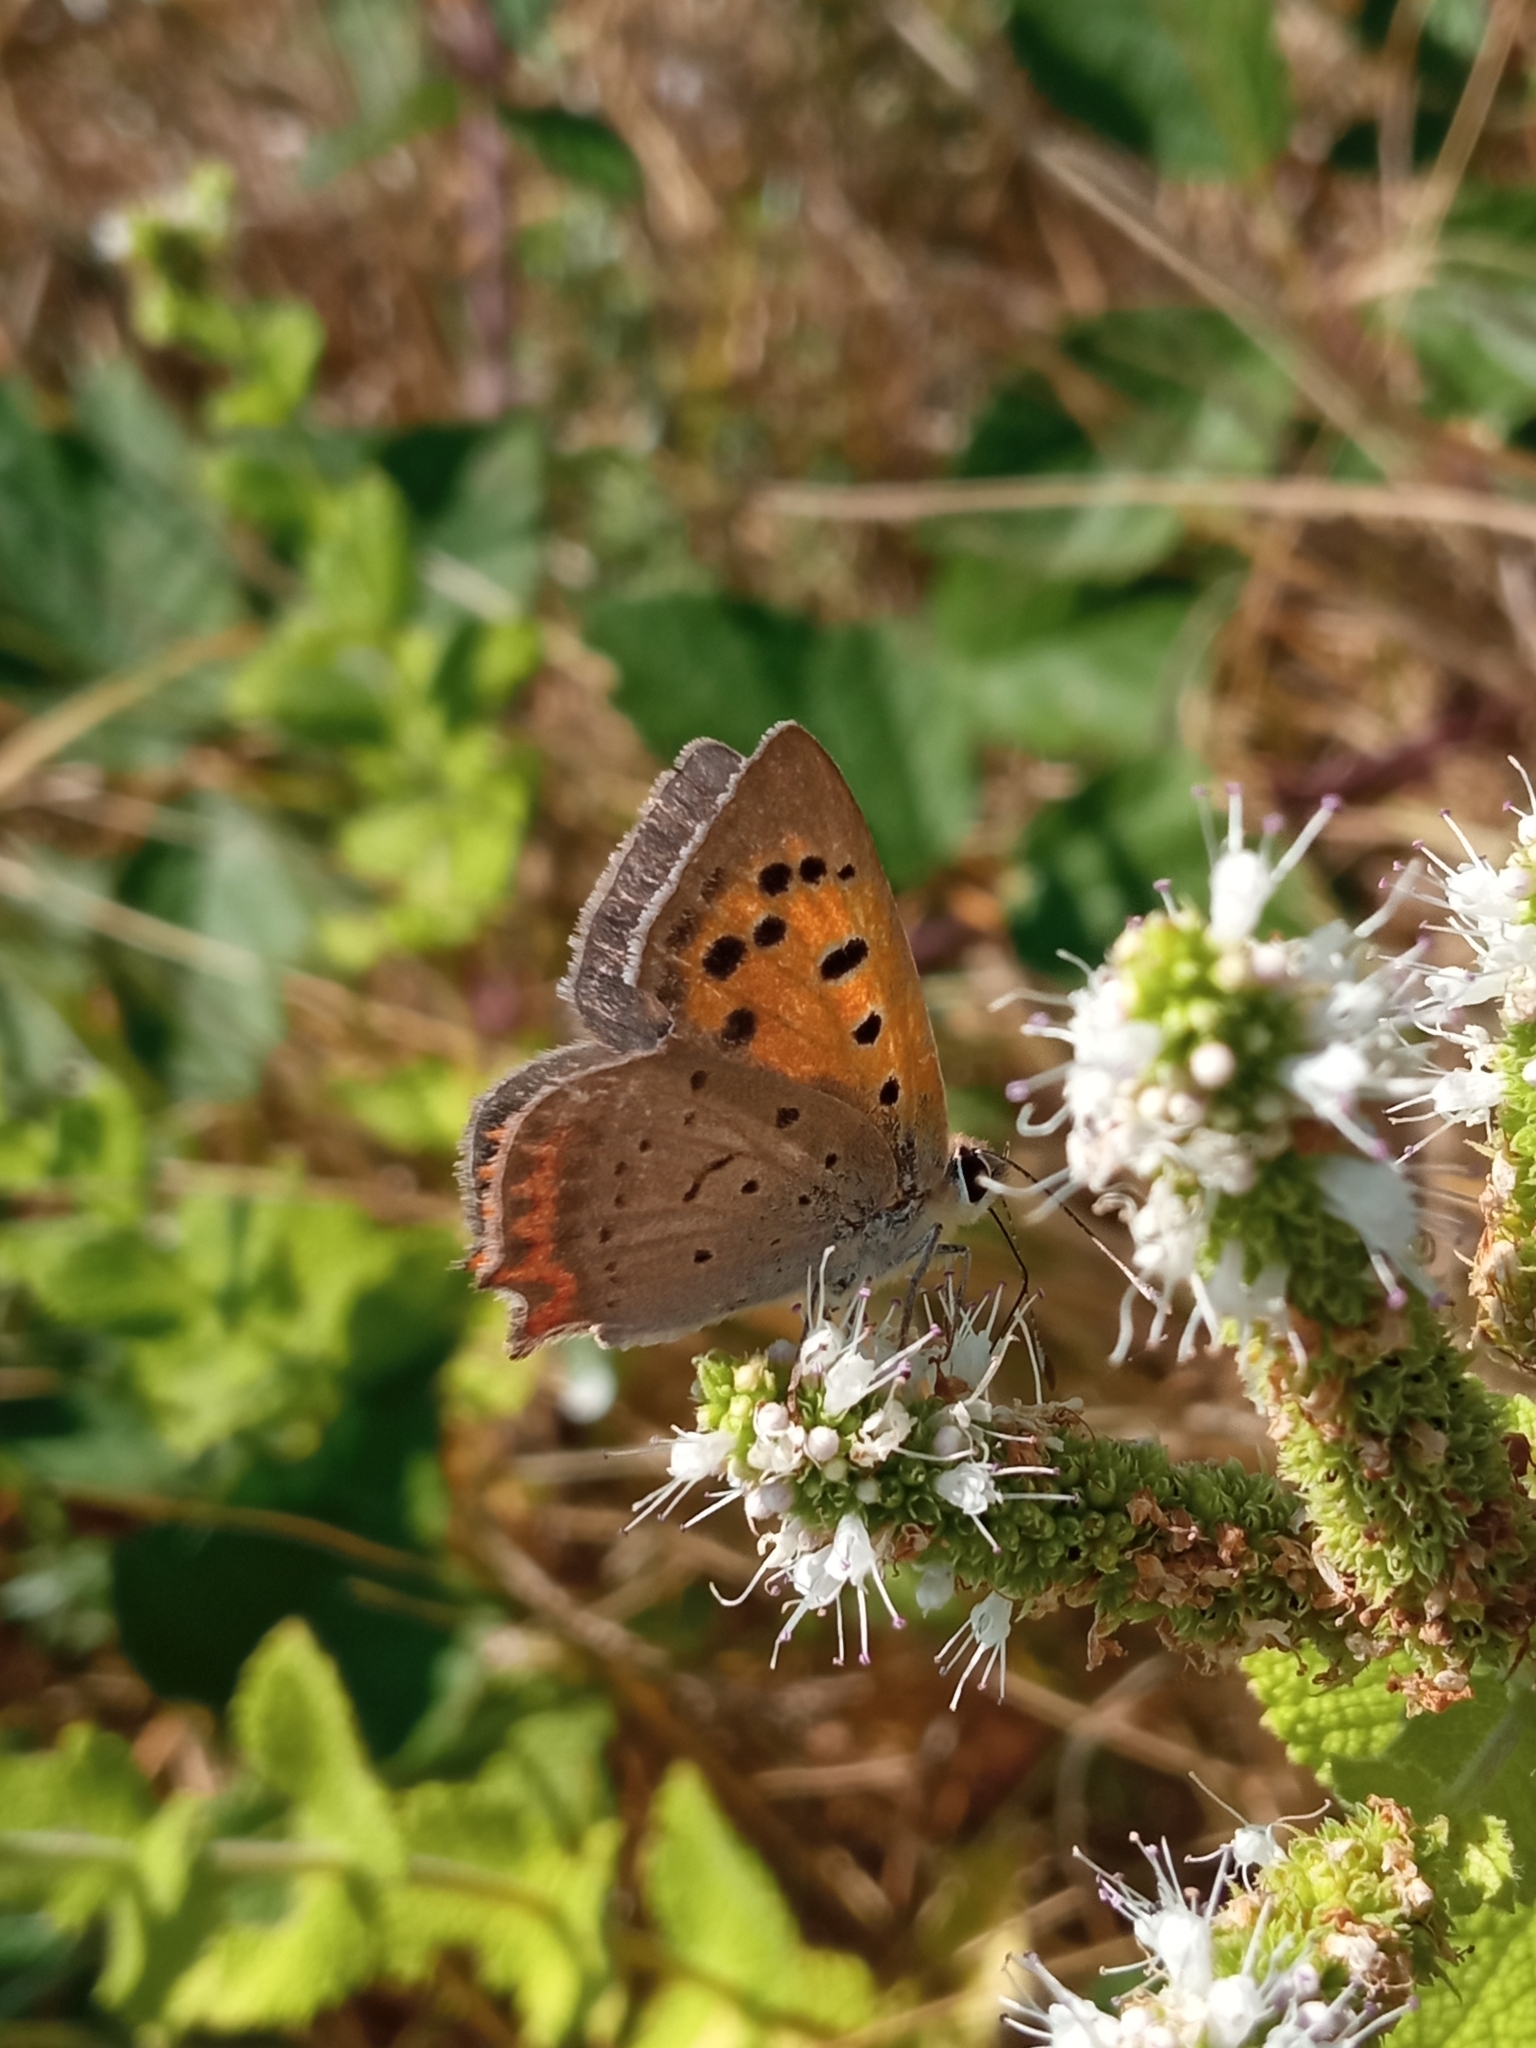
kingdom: Animalia
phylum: Arthropoda
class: Insecta
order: Lepidoptera
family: Lycaenidae
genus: Lycaena
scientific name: Lycaena phlaeas
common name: Small copper
